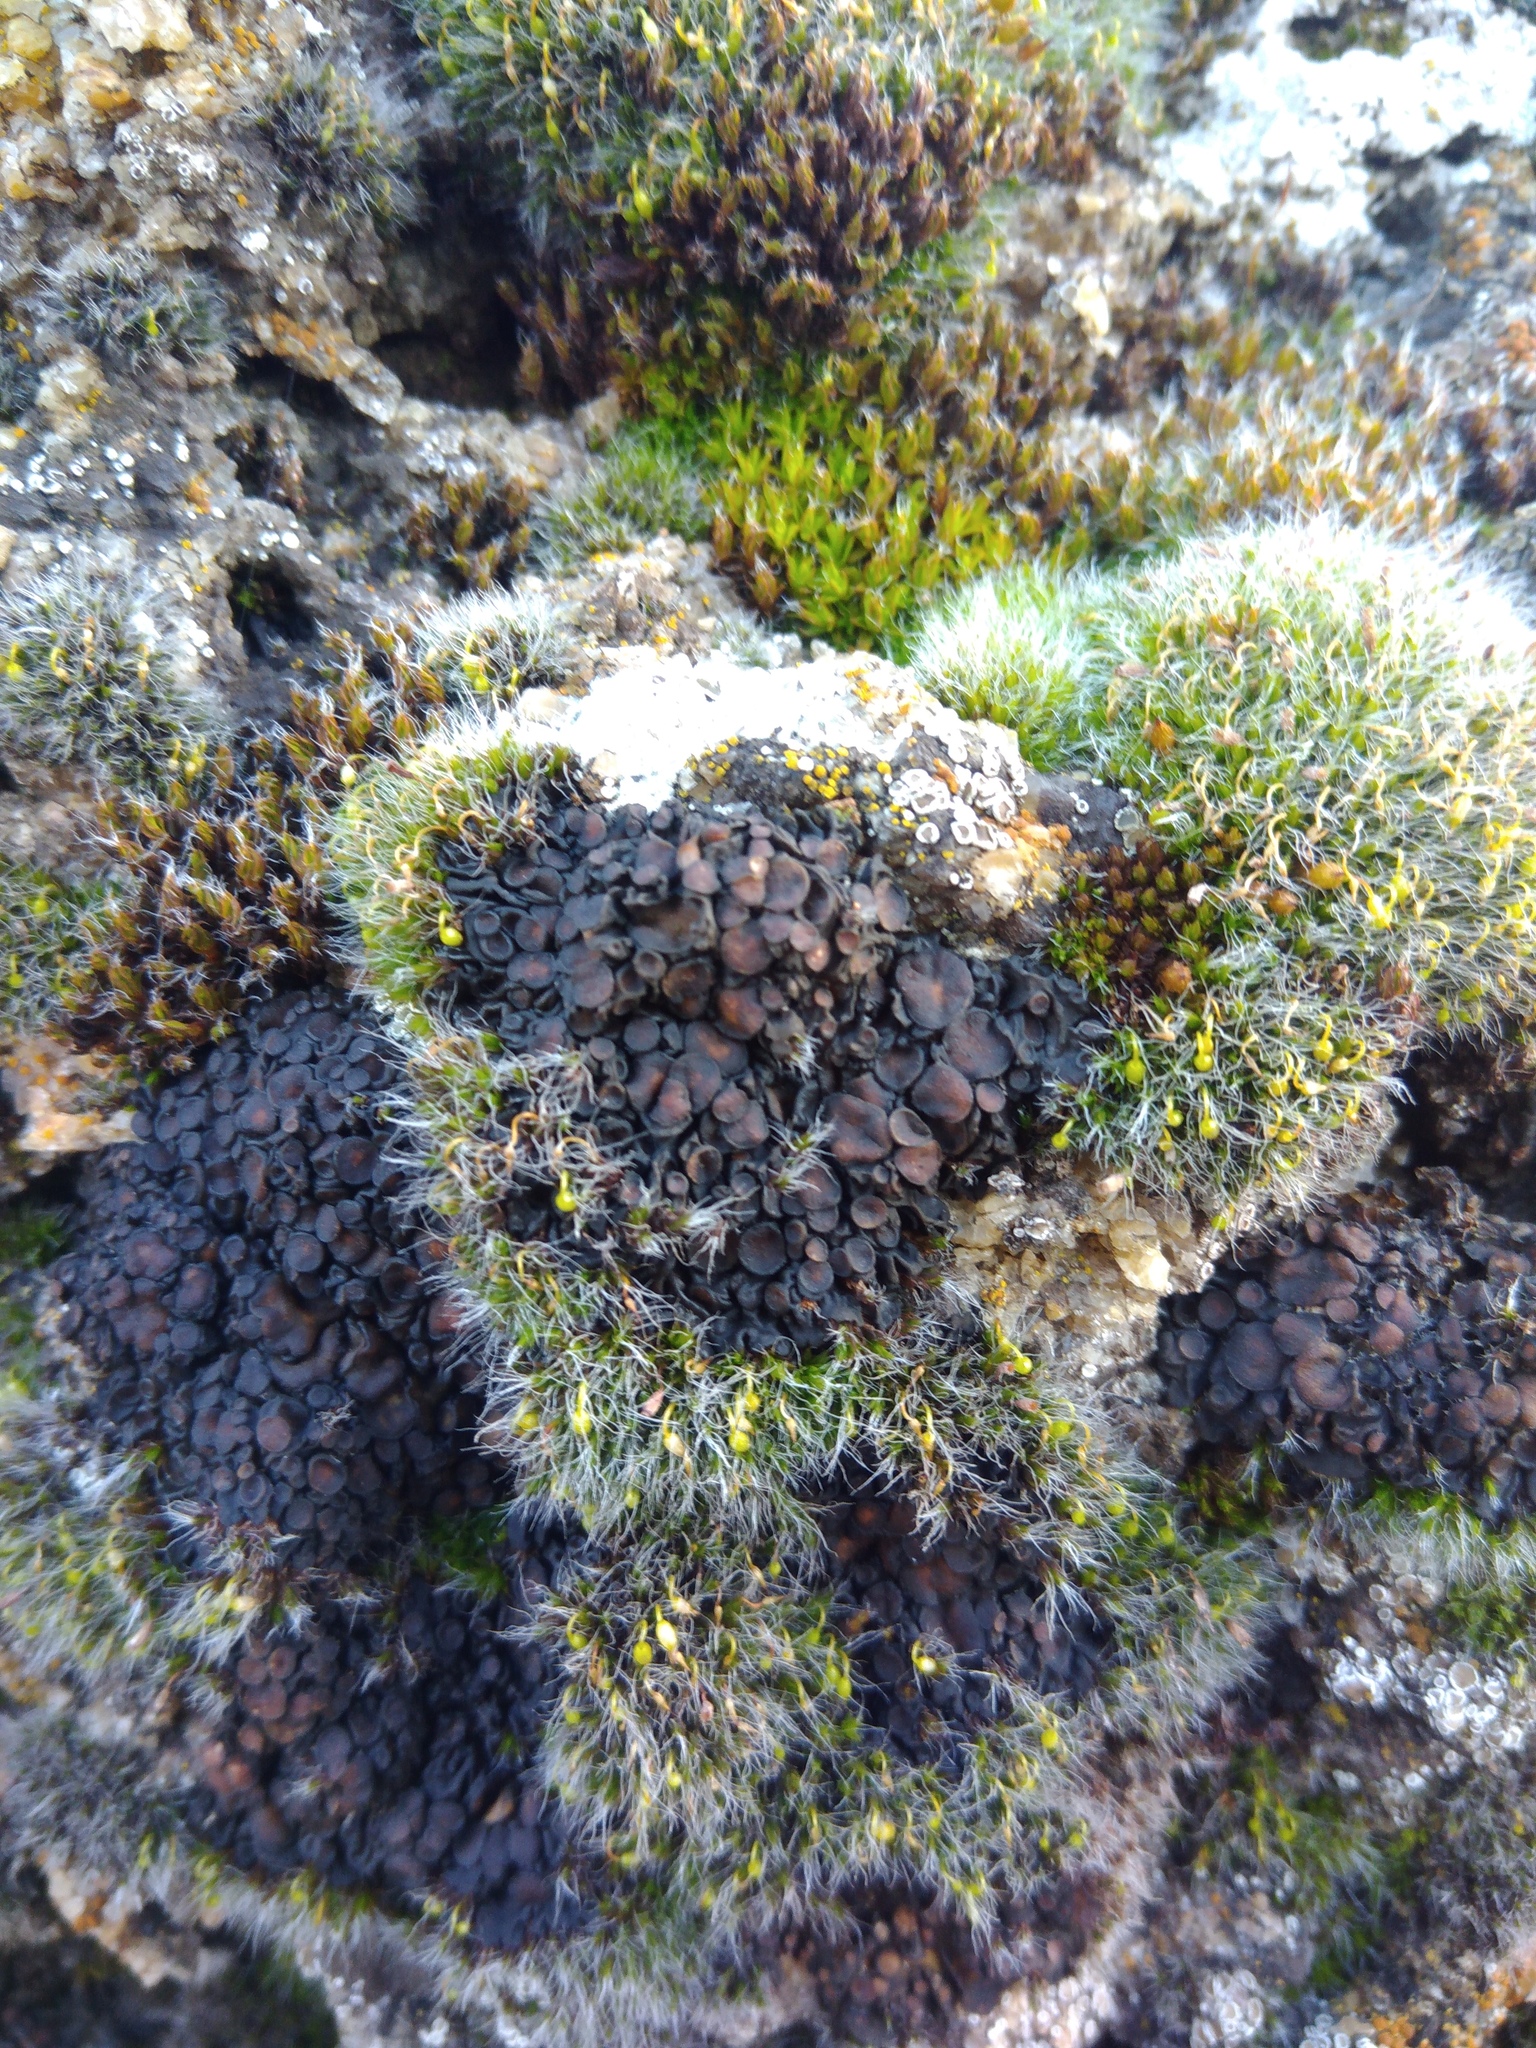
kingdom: Fungi
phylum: Ascomycota
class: Lecanoromycetes
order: Peltigerales
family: Collemataceae
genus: Enchylium
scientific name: Enchylium tenax
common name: Jelly lichen
